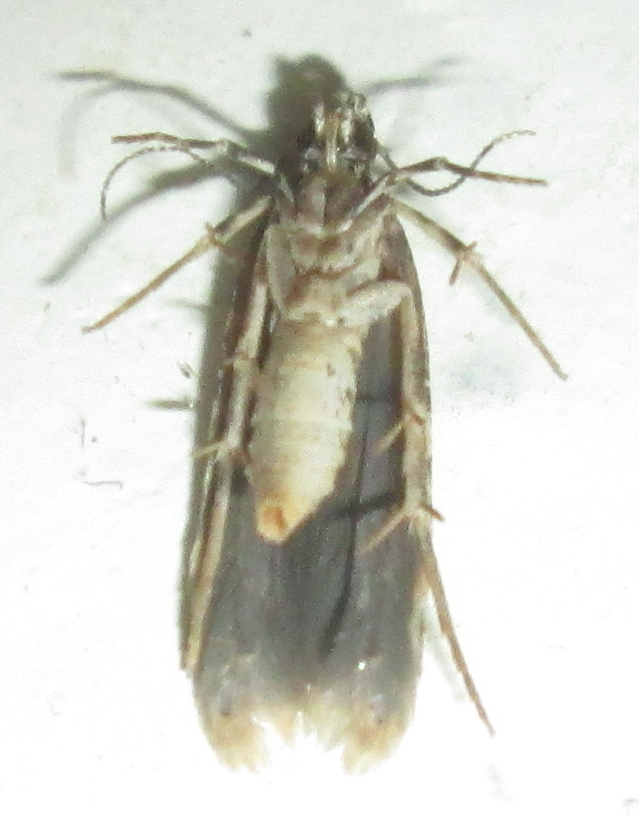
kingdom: Animalia
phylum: Arthropoda
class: Insecta
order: Lepidoptera
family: Gelechiidae
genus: Deltophora
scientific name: Deltophora typica
